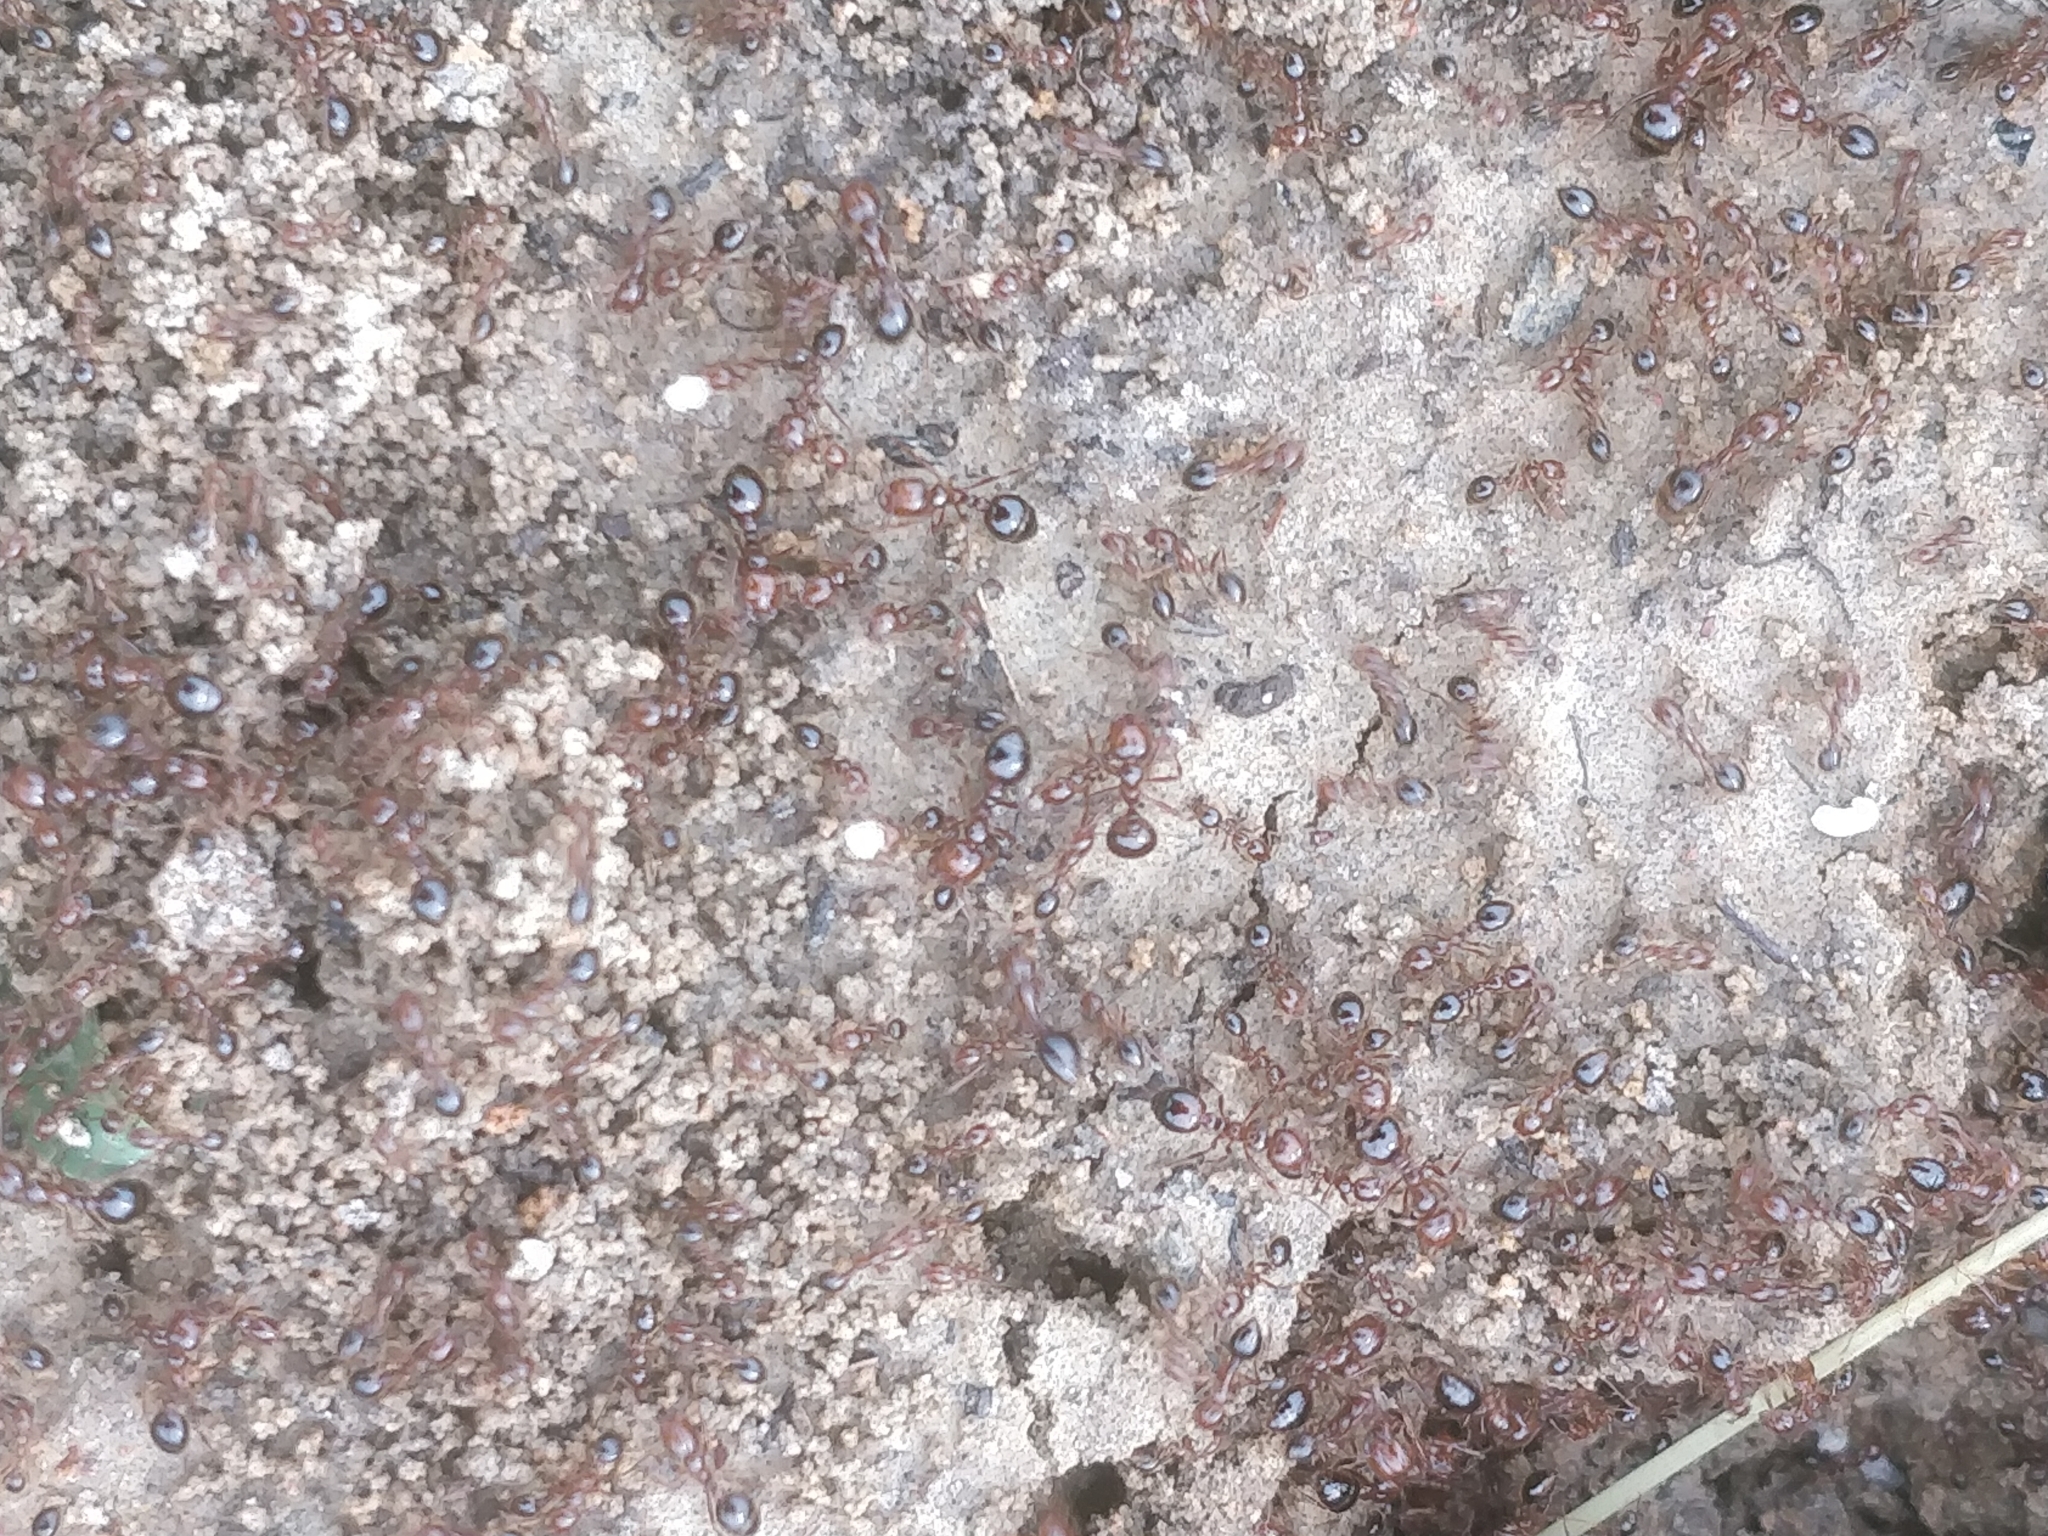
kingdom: Animalia
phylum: Arthropoda
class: Insecta
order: Hymenoptera
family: Formicidae
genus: Solenopsis
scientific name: Solenopsis invicta
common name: Red imported fire ant
